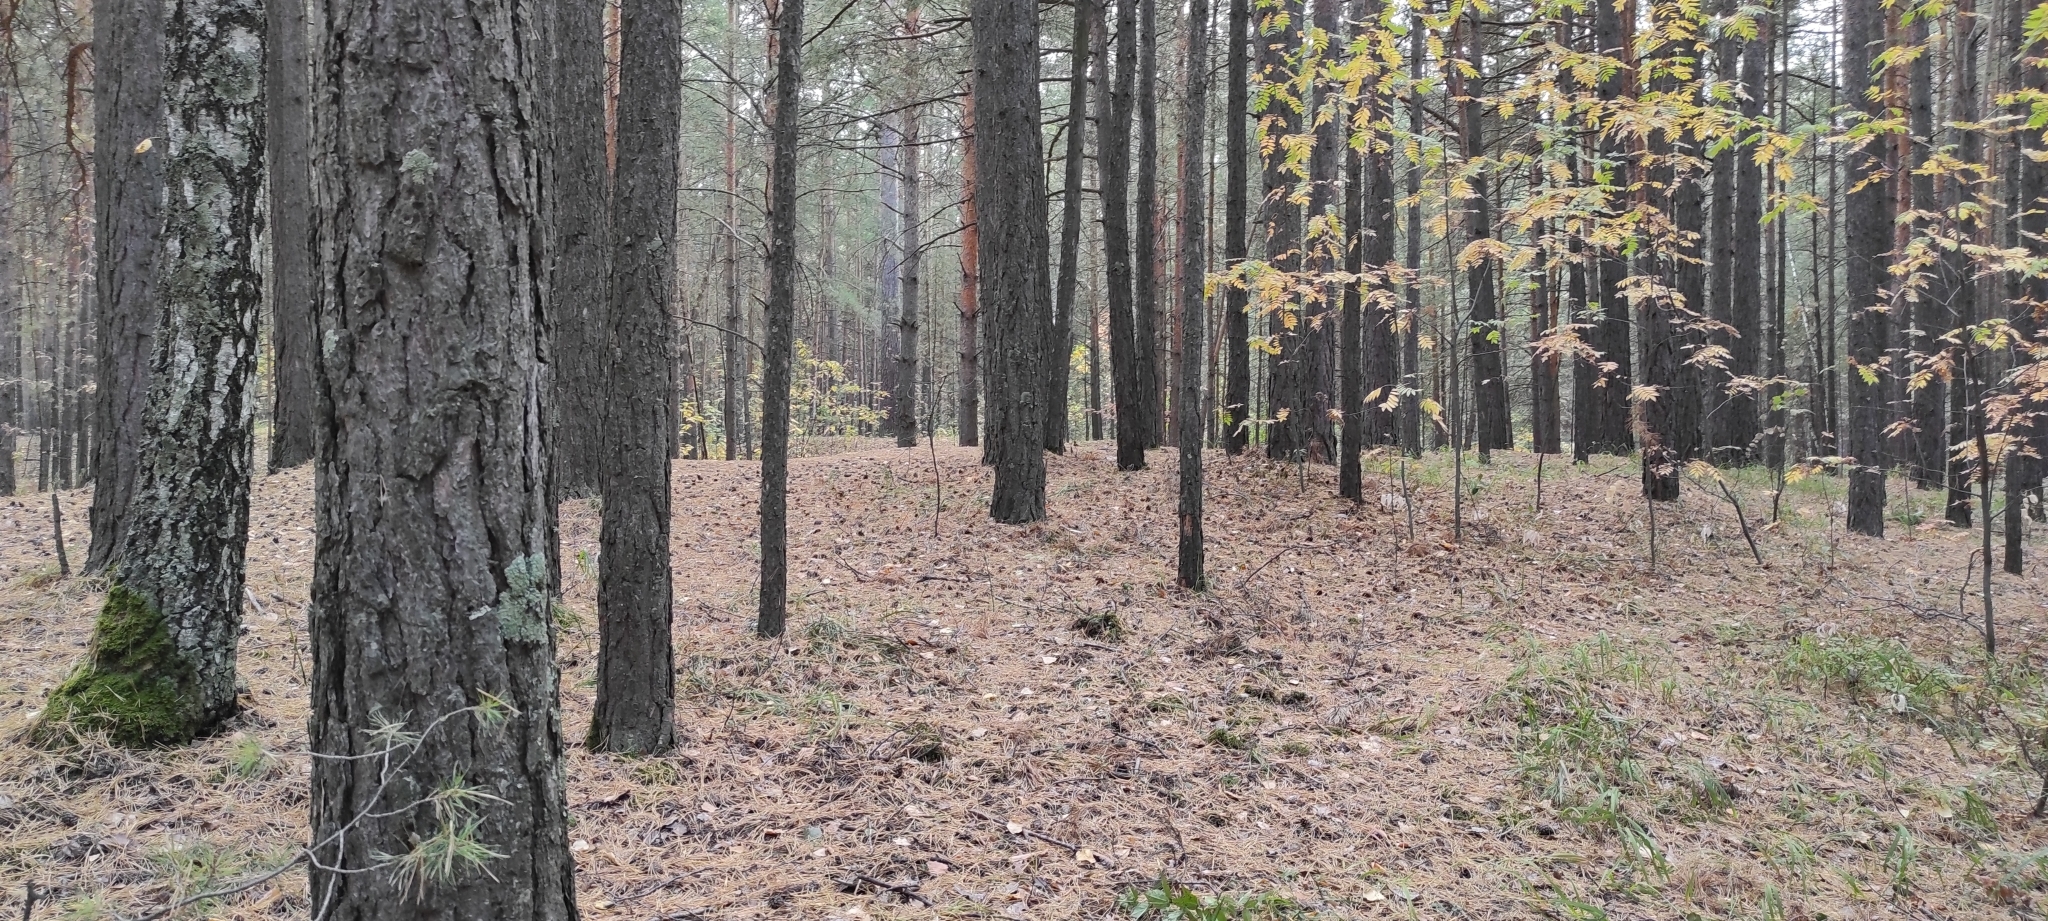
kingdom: Plantae
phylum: Tracheophyta
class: Pinopsida
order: Pinales
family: Pinaceae
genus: Pinus
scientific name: Pinus sylvestris
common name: Scots pine
